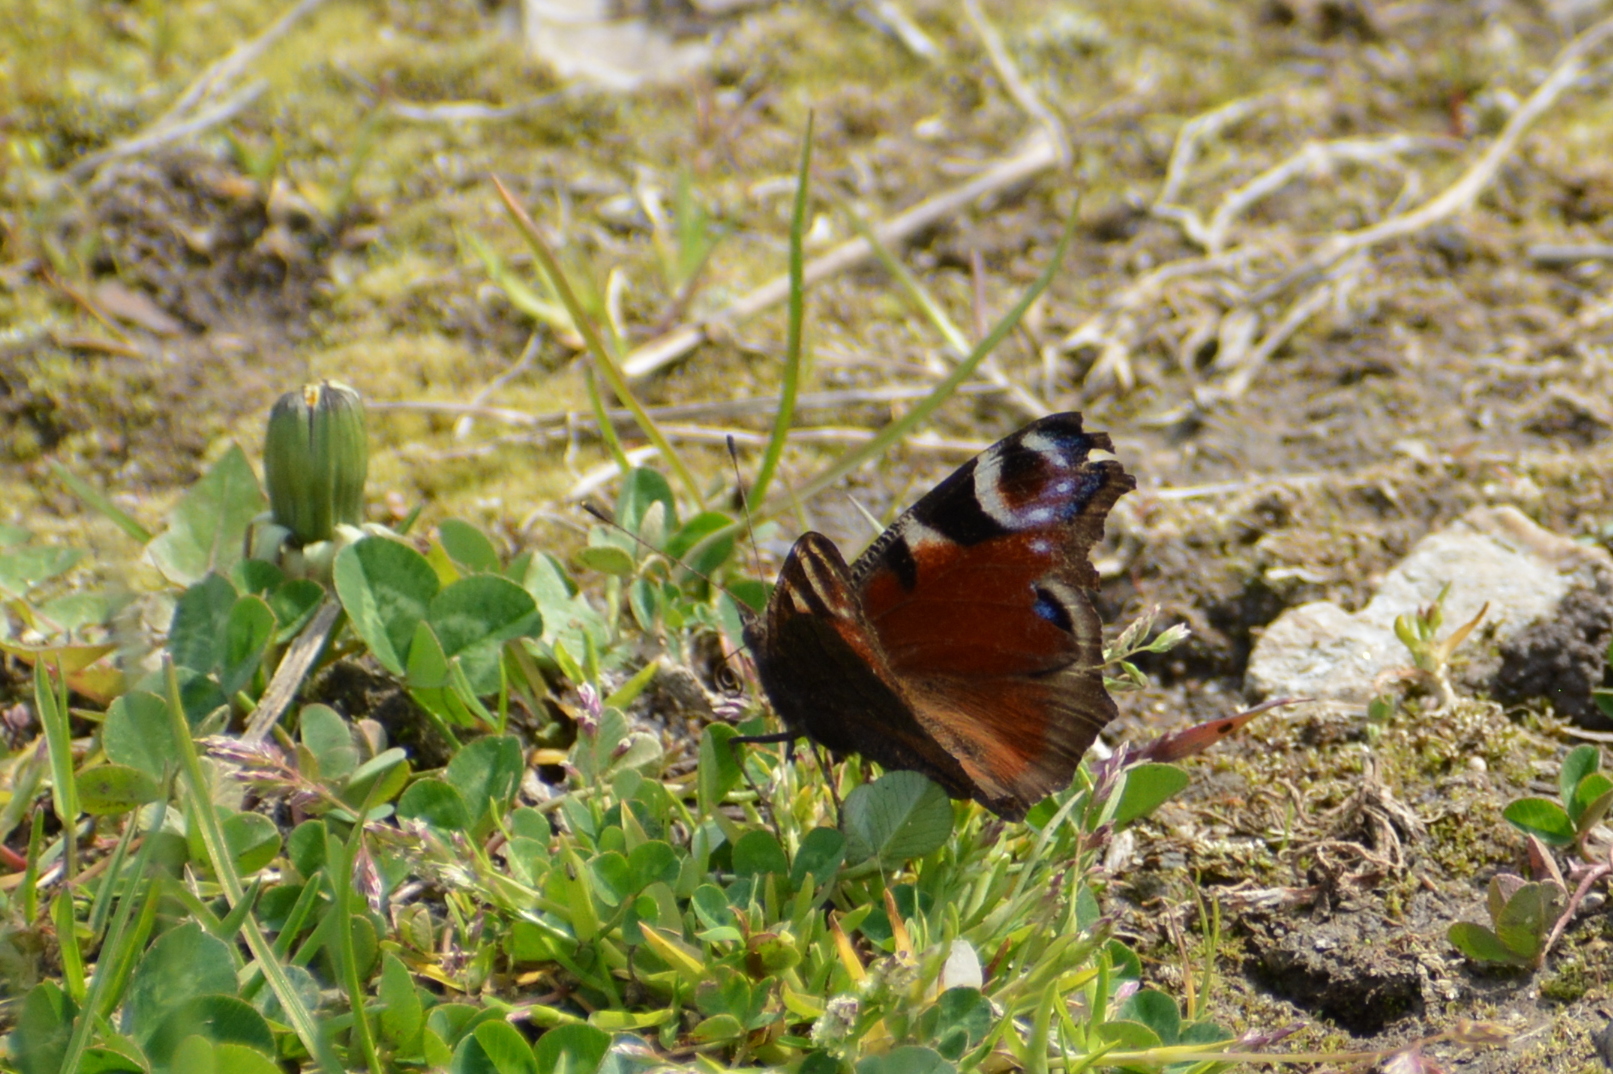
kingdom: Animalia
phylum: Arthropoda
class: Insecta
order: Lepidoptera
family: Nymphalidae
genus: Aglais
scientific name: Aglais io
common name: Peacock
